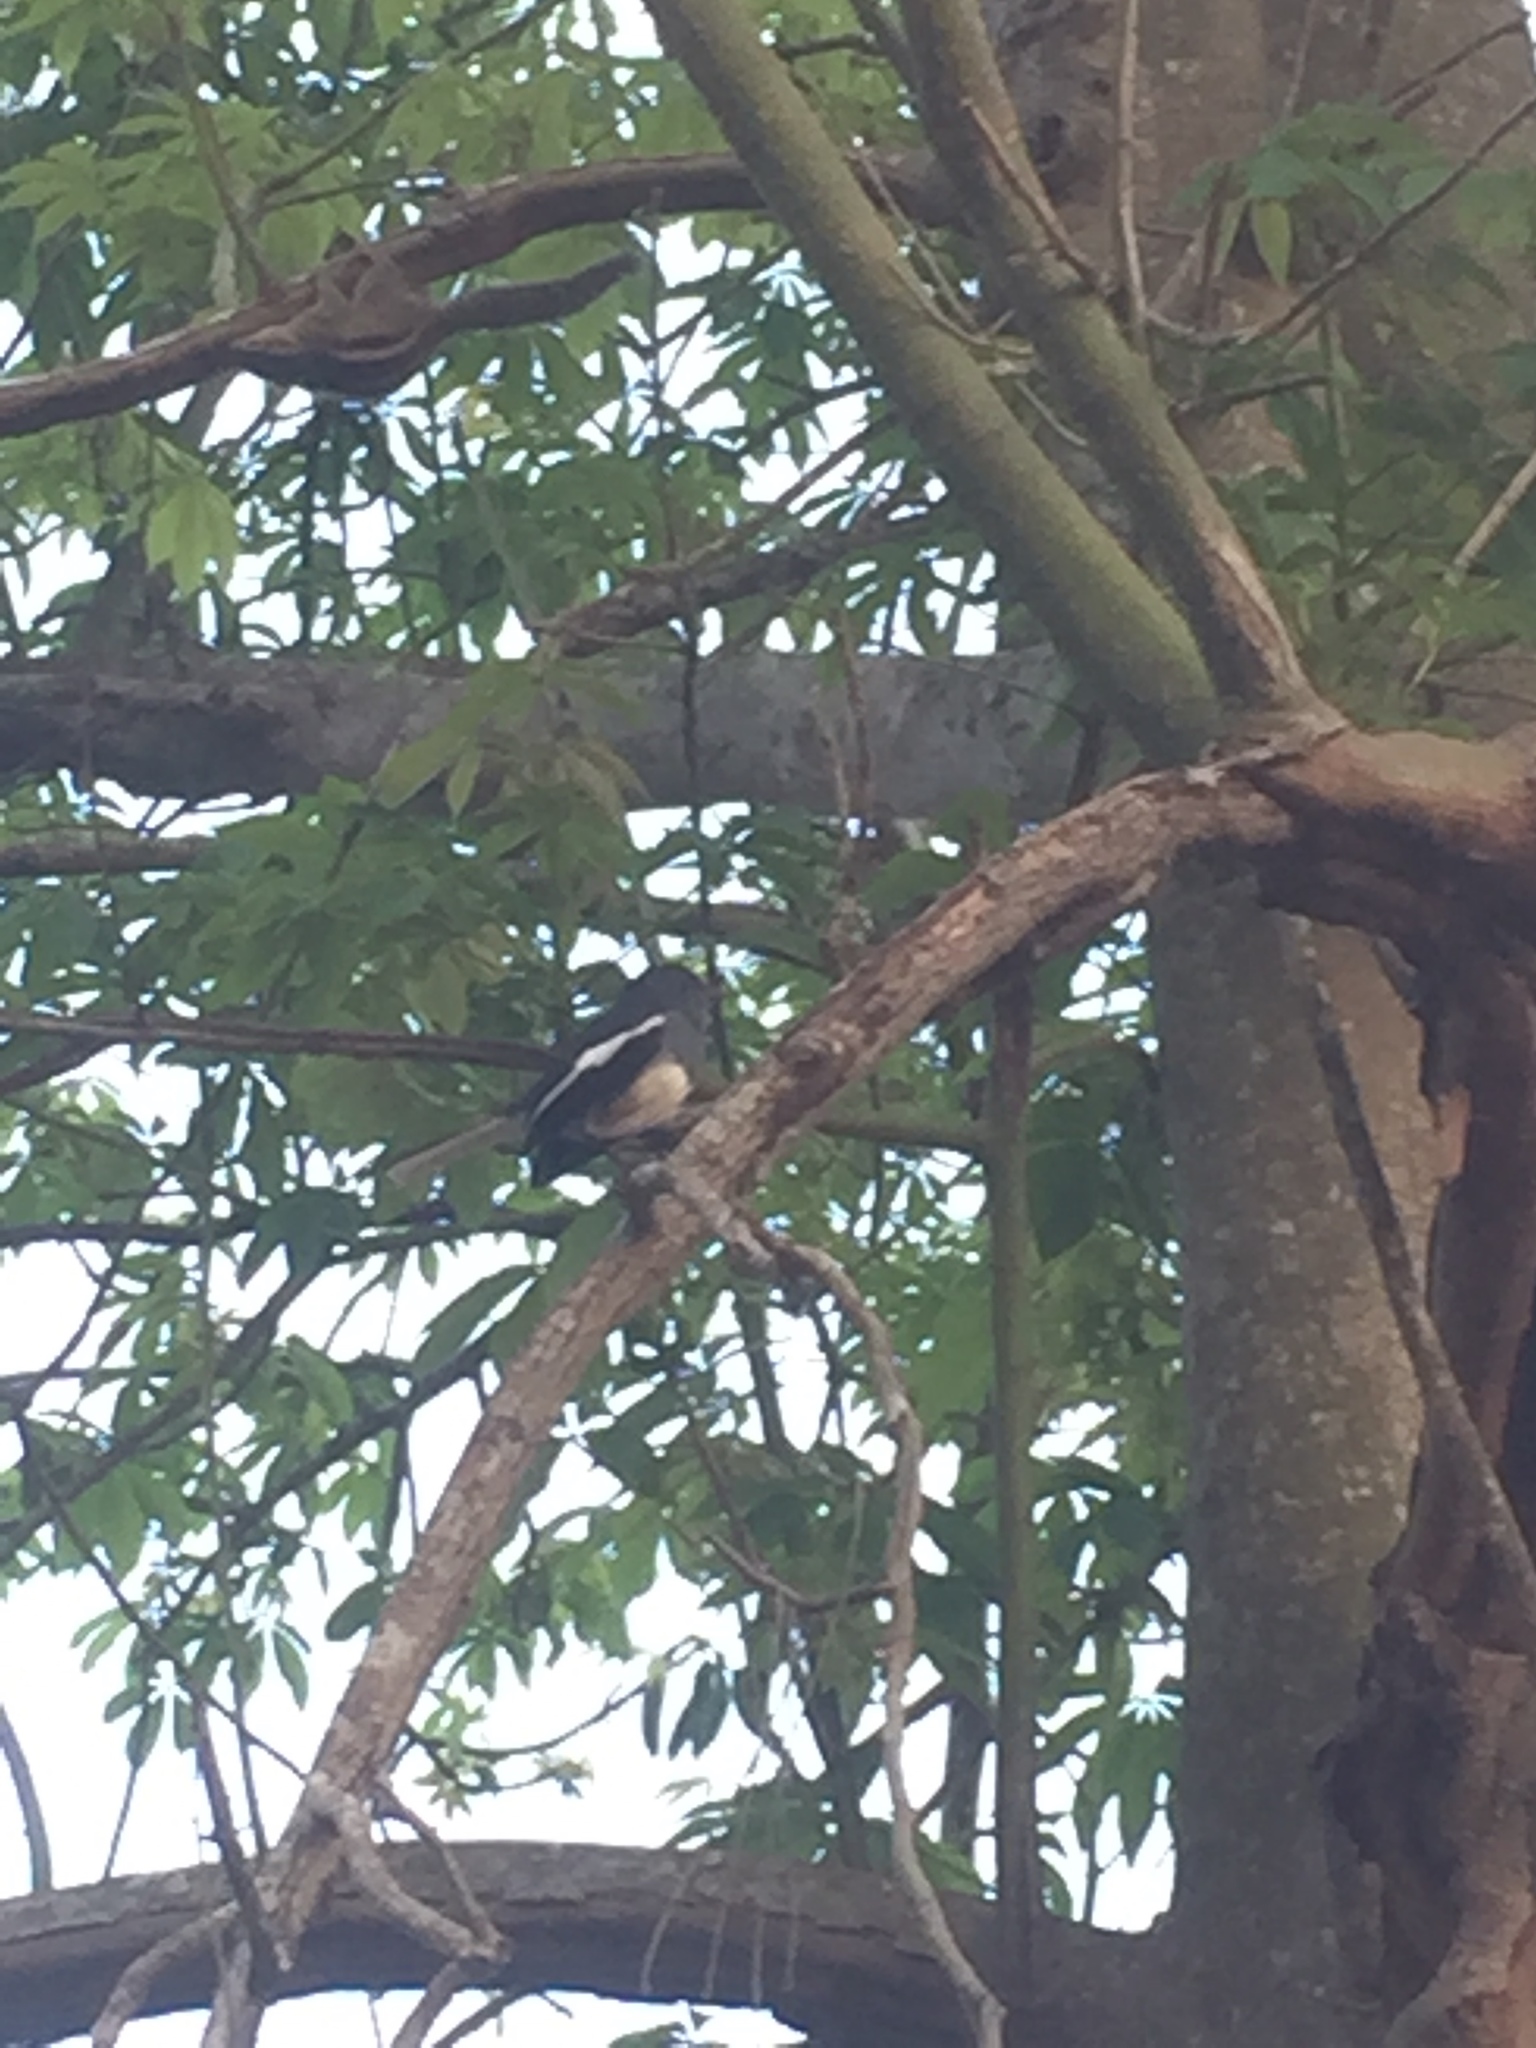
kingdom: Animalia
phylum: Chordata
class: Aves
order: Passeriformes
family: Muscicapidae
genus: Copsychus
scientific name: Copsychus saularis
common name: Oriental magpie-robin
